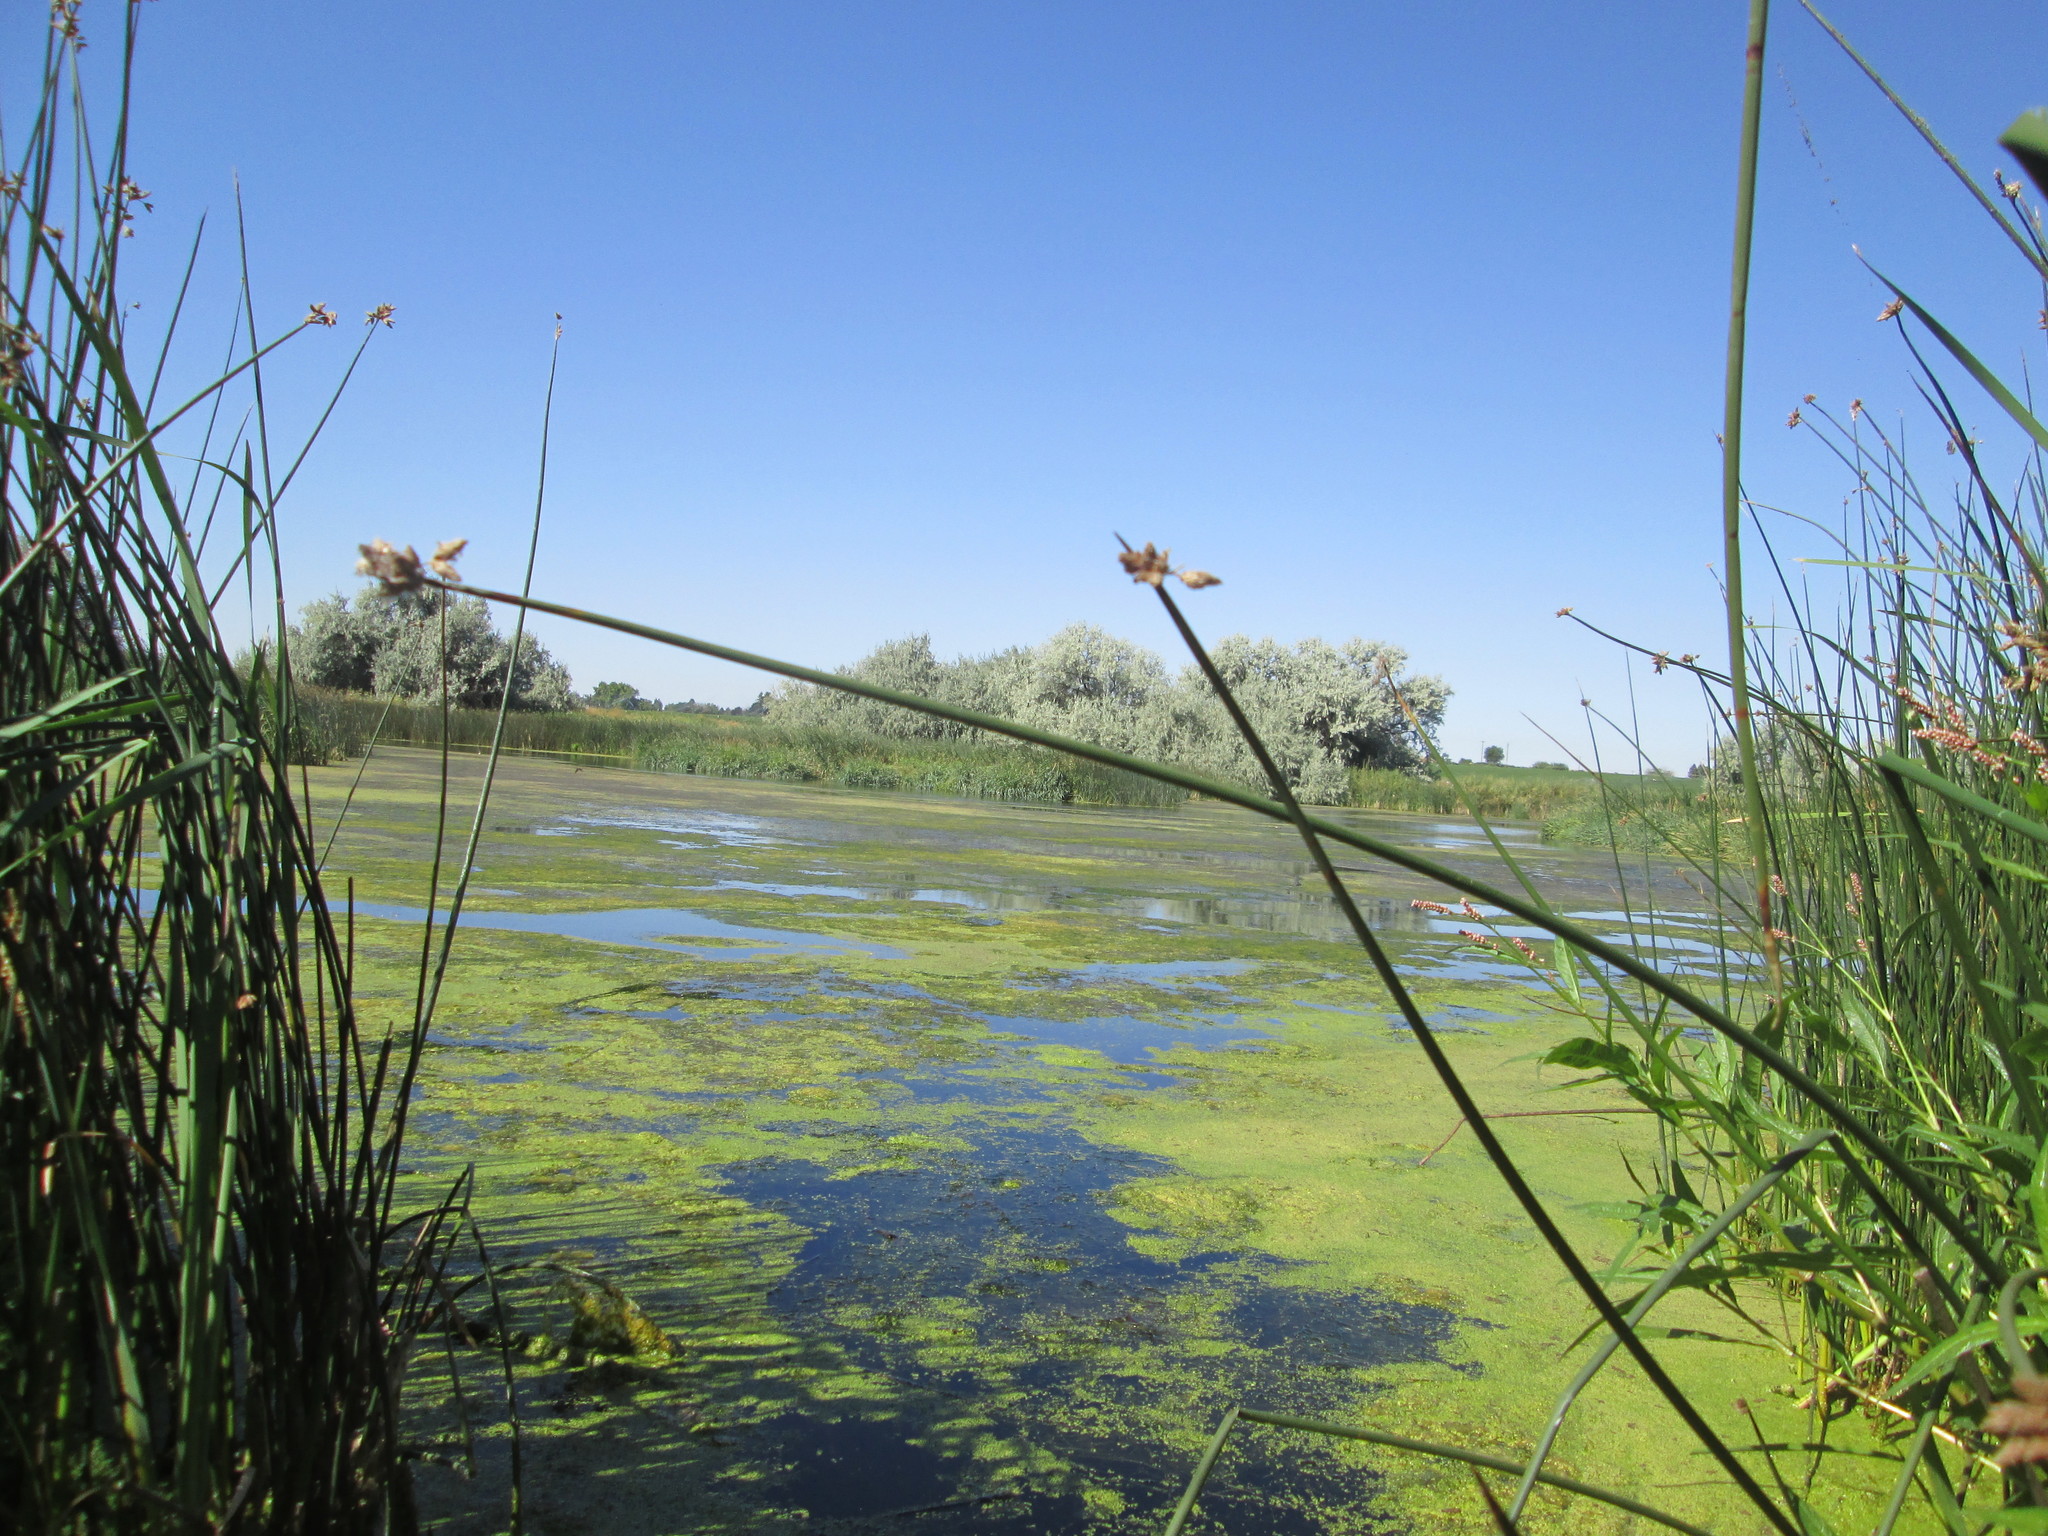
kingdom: Plantae
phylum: Tracheophyta
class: Liliopsida
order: Poales
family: Cyperaceae
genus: Schoenoplectus
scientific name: Schoenoplectus tabernaemontani
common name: Grey club-rush
